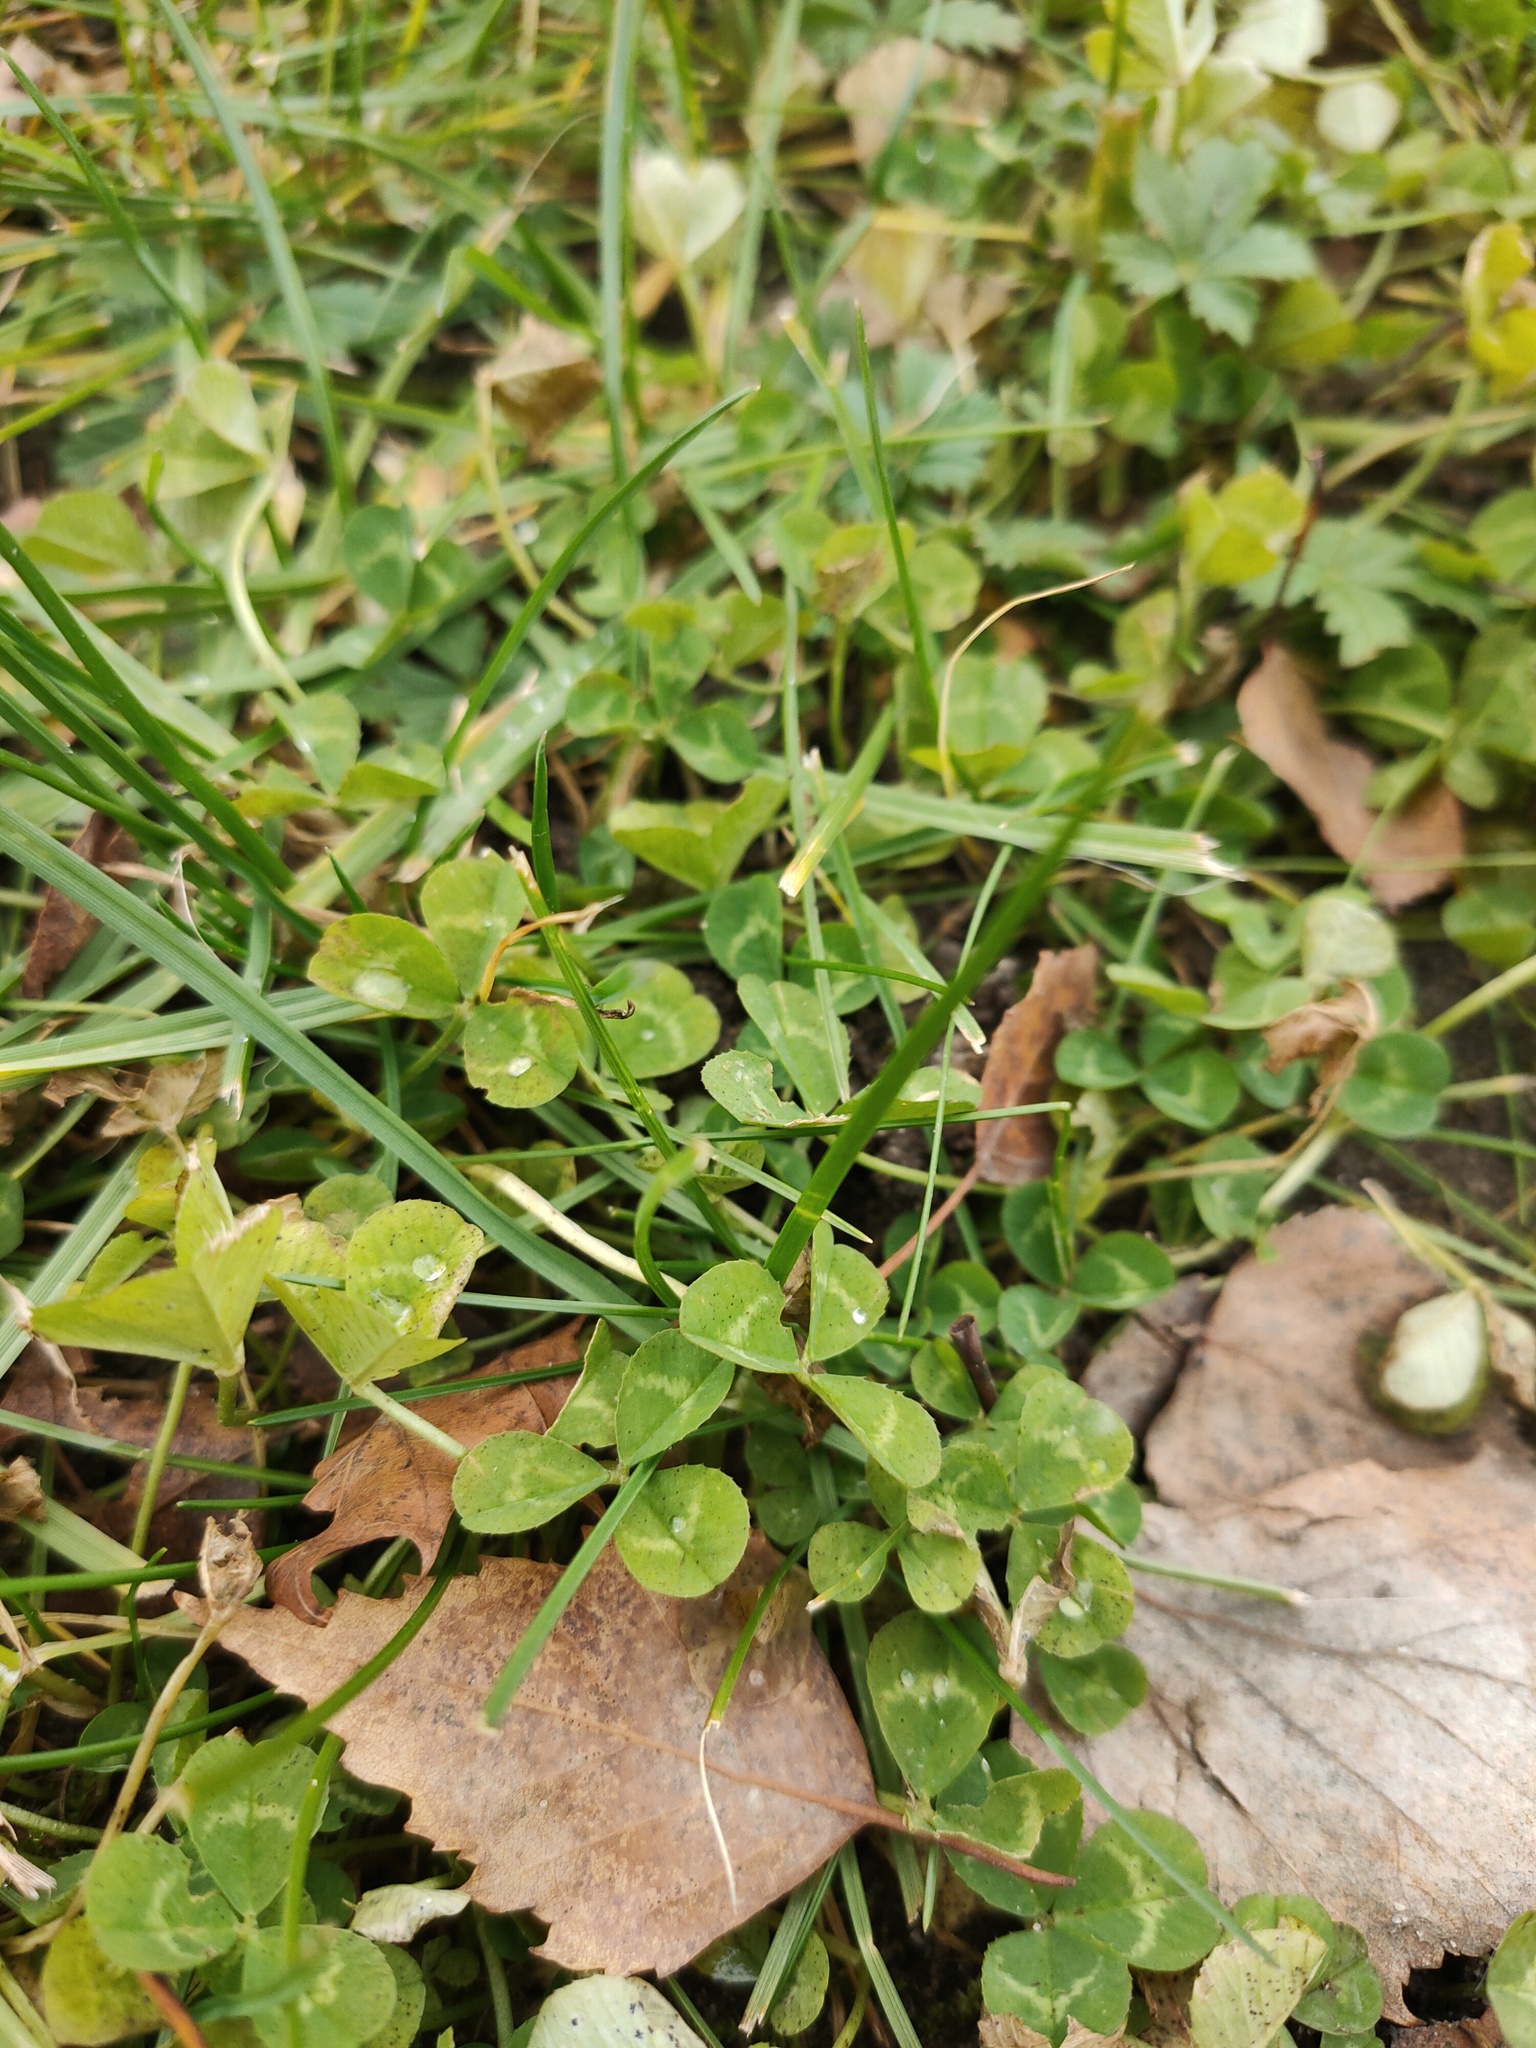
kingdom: Plantae
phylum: Tracheophyta
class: Magnoliopsida
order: Fabales
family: Fabaceae
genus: Trifolium
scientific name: Trifolium repens
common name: White clover
